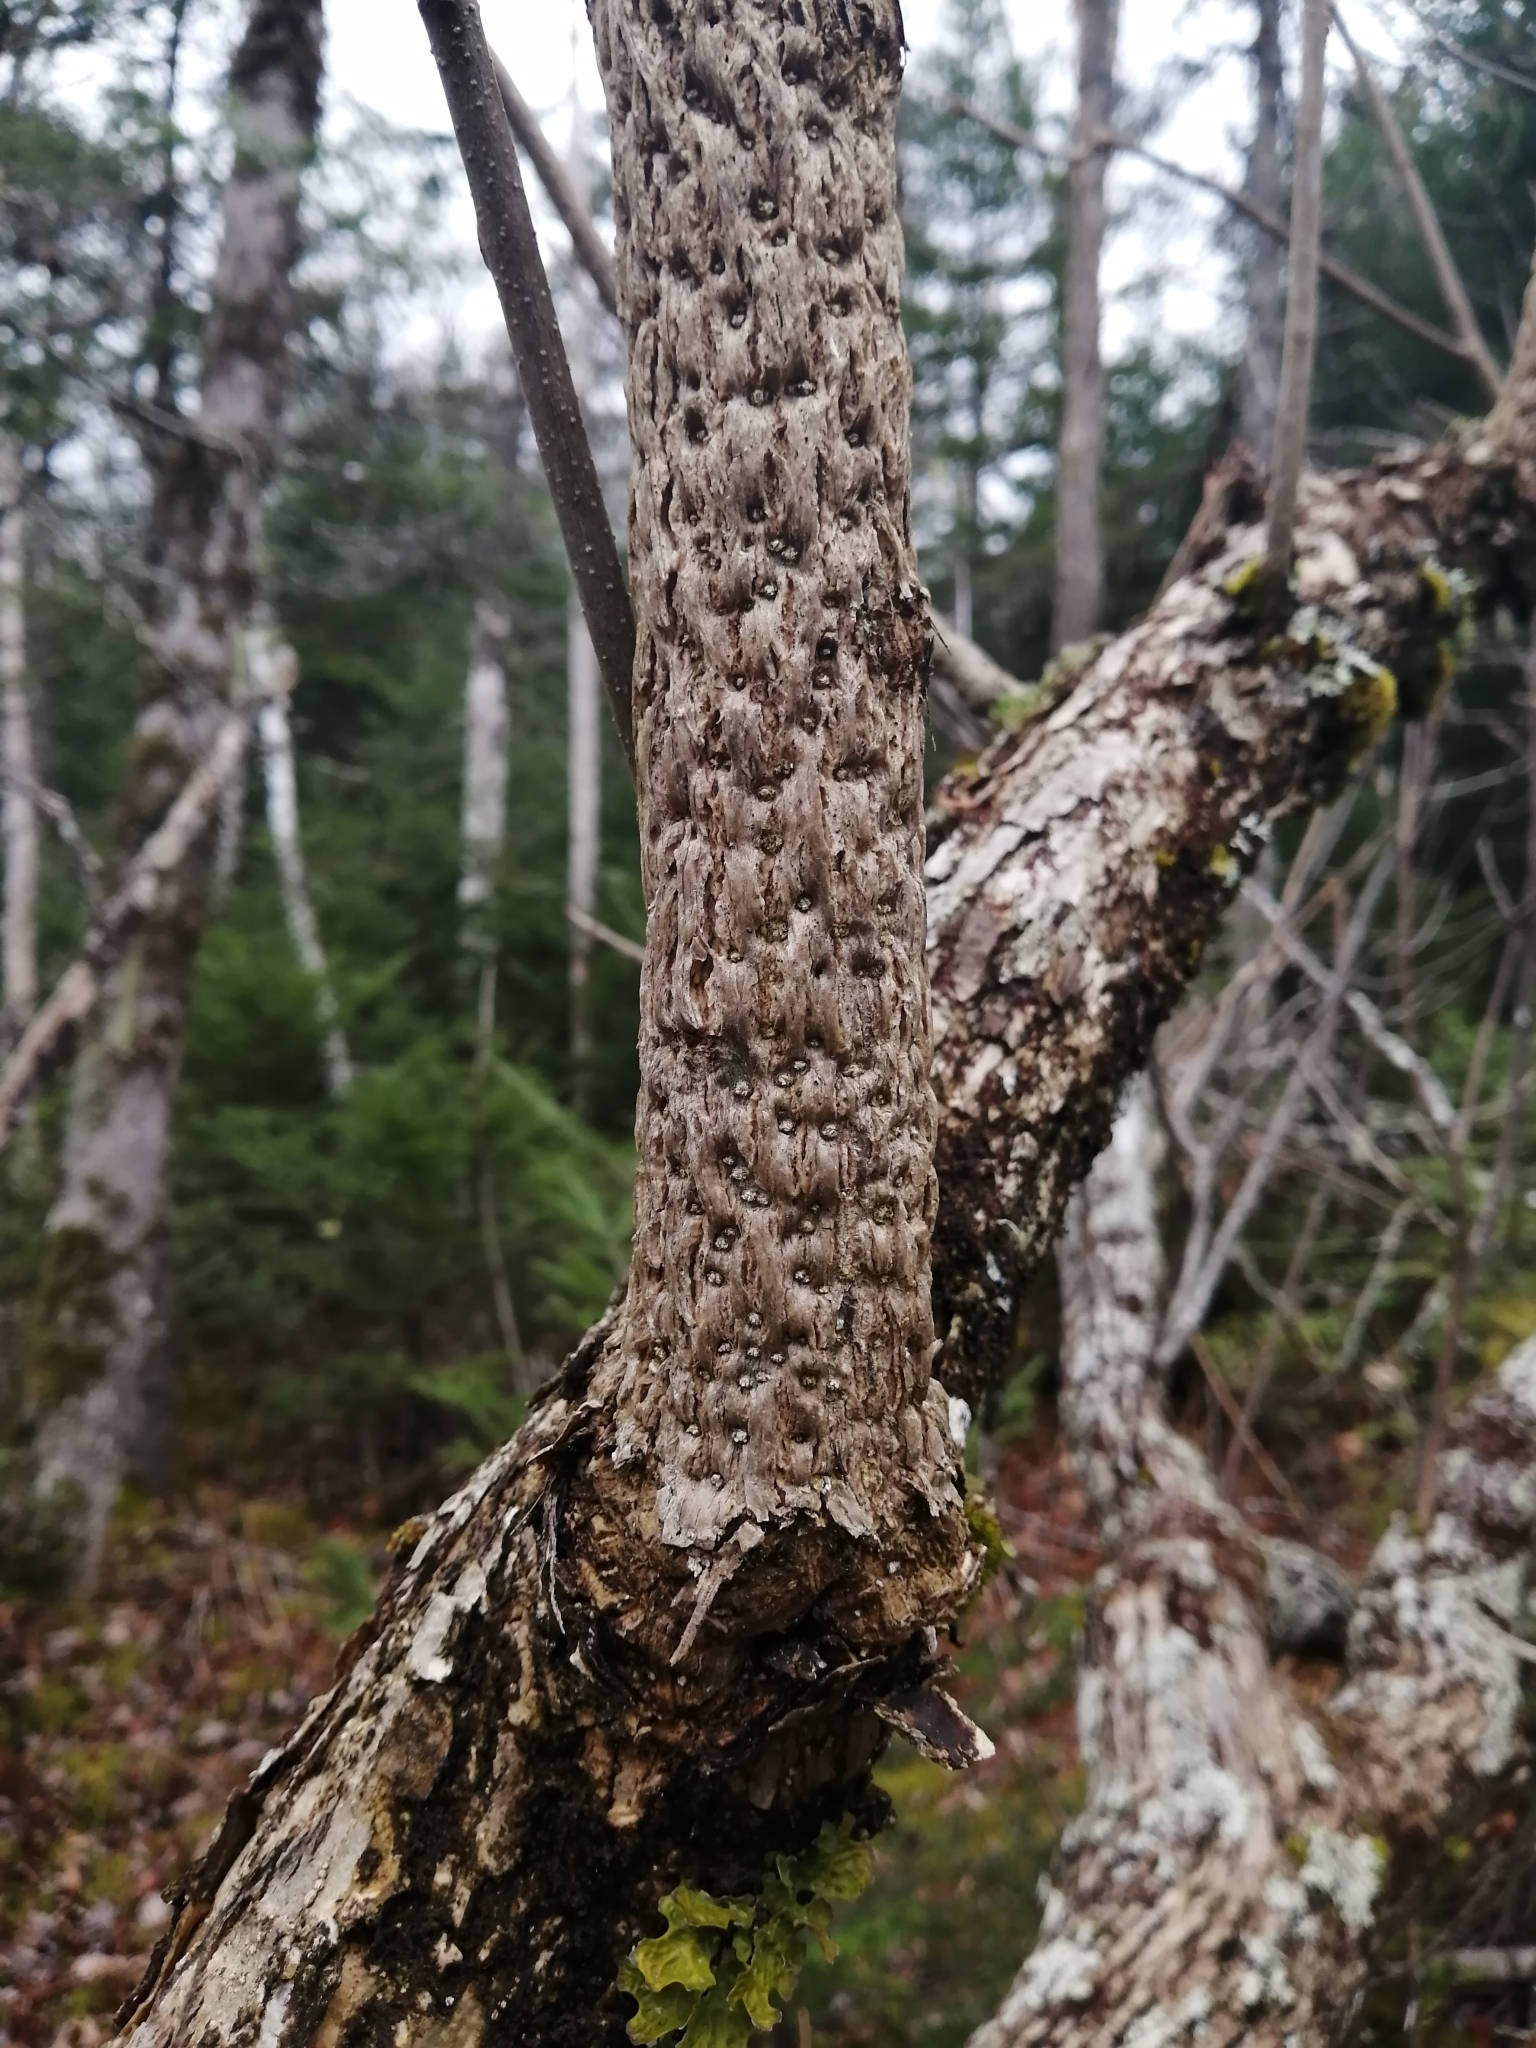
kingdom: Plantae
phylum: Tracheophyta
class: Magnoliopsida
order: Lamiales
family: Oleaceae
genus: Fraxinus
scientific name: Fraxinus nigra
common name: Black ash
